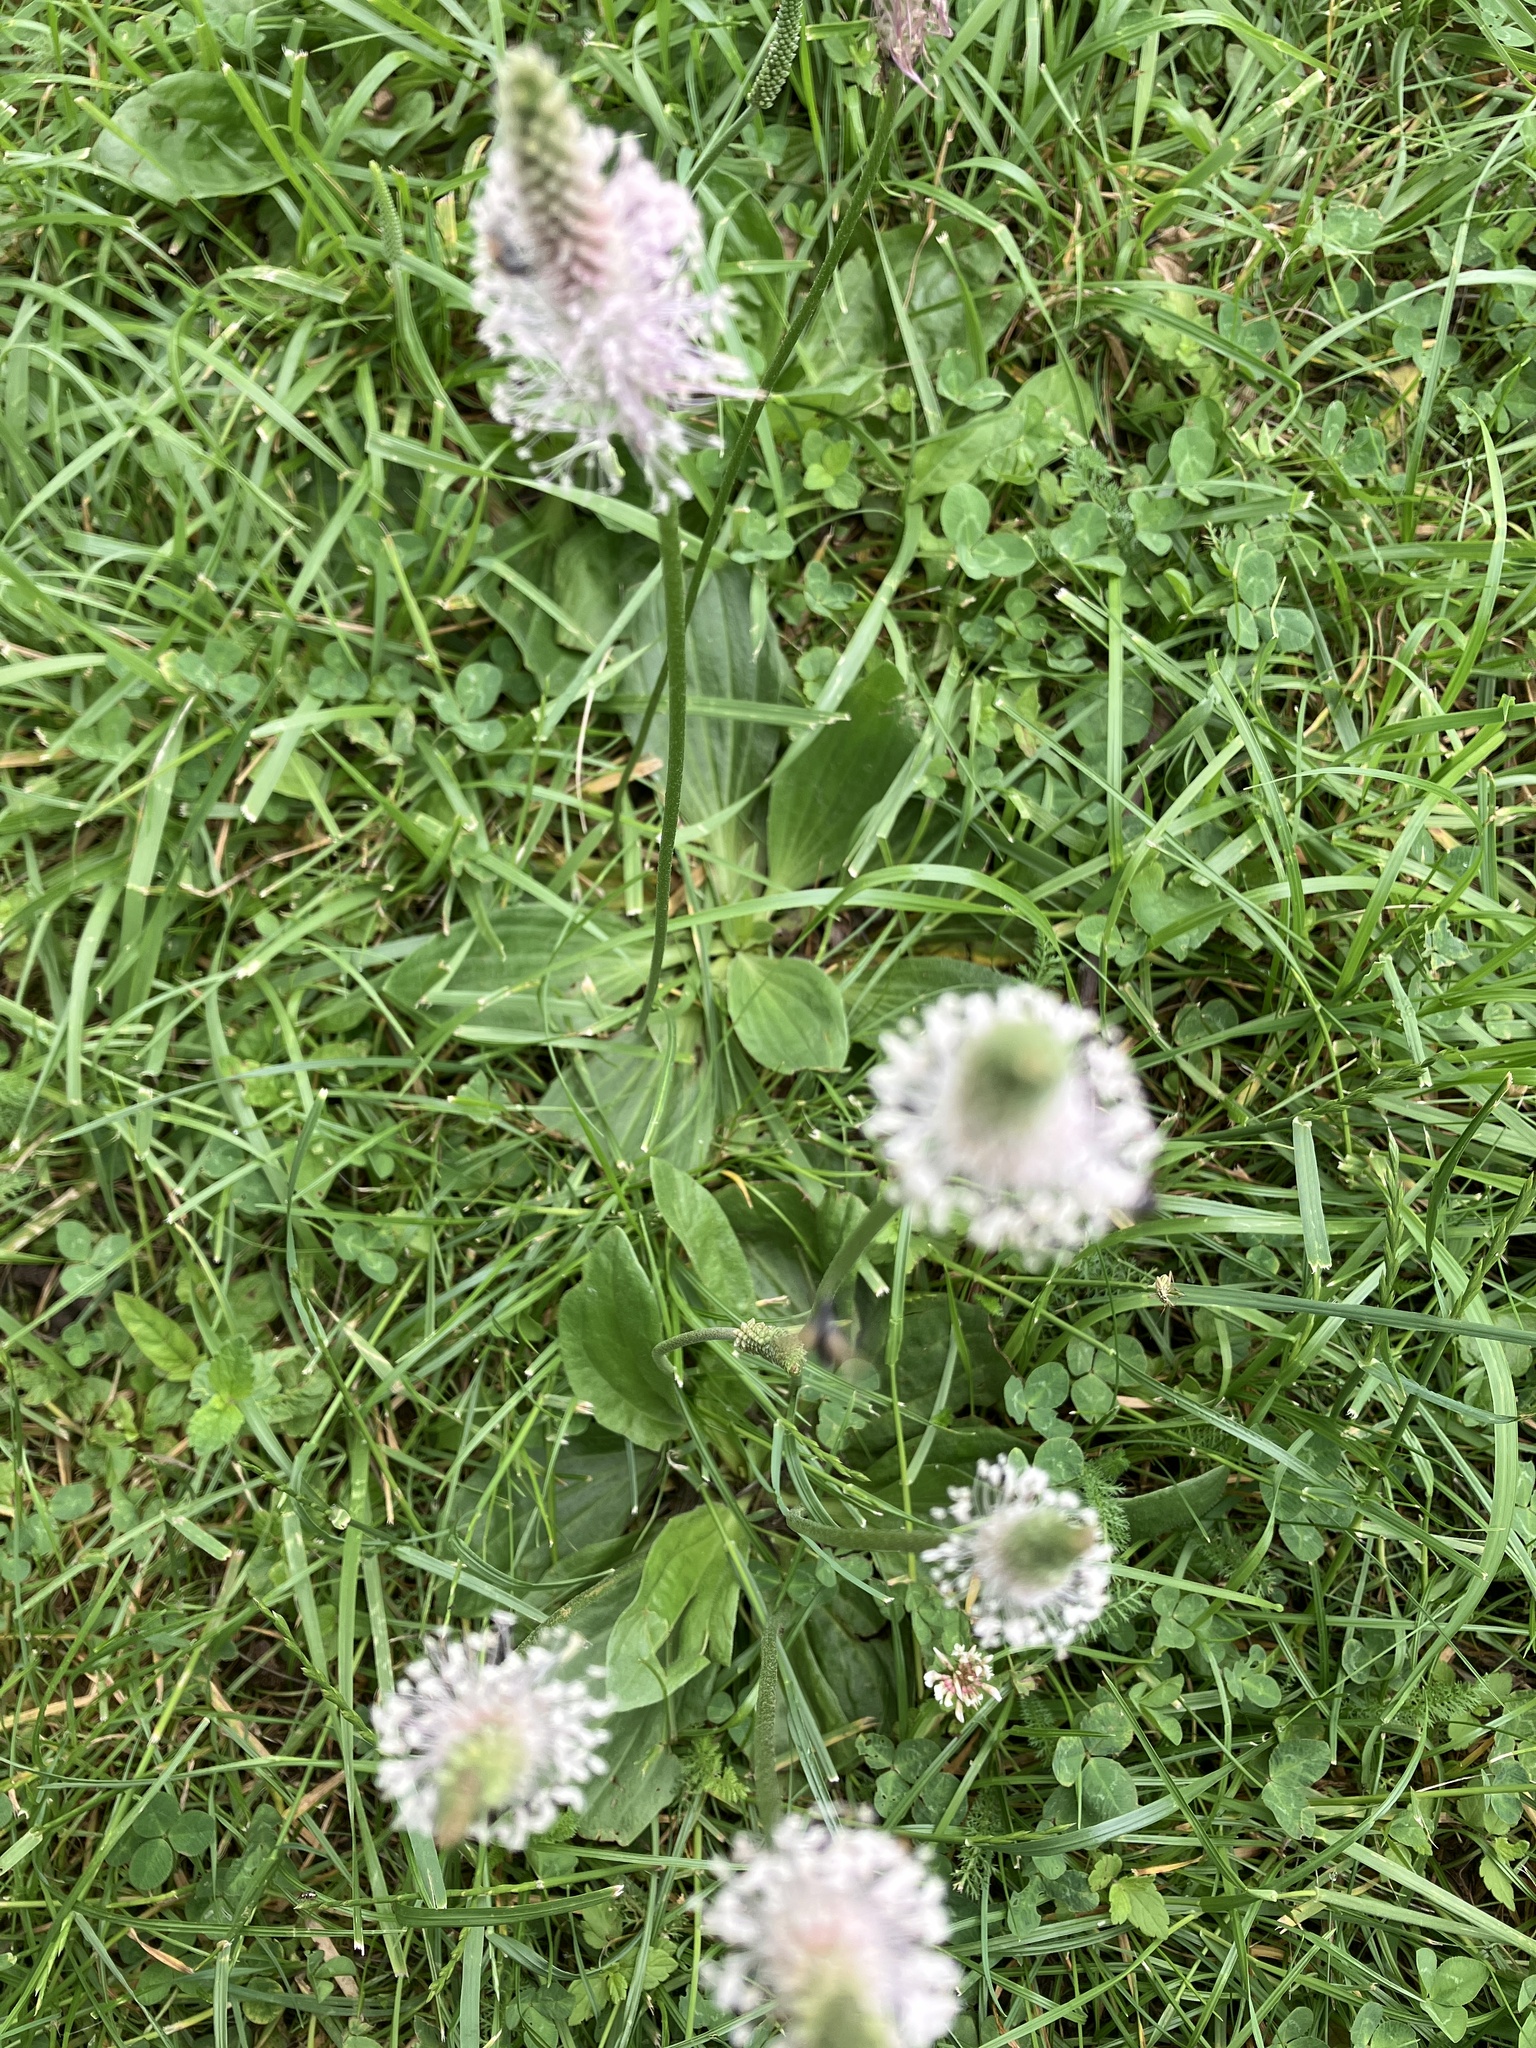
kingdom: Plantae
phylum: Tracheophyta
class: Magnoliopsida
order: Lamiales
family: Plantaginaceae
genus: Plantago
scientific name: Plantago media
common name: Hoary plantain
